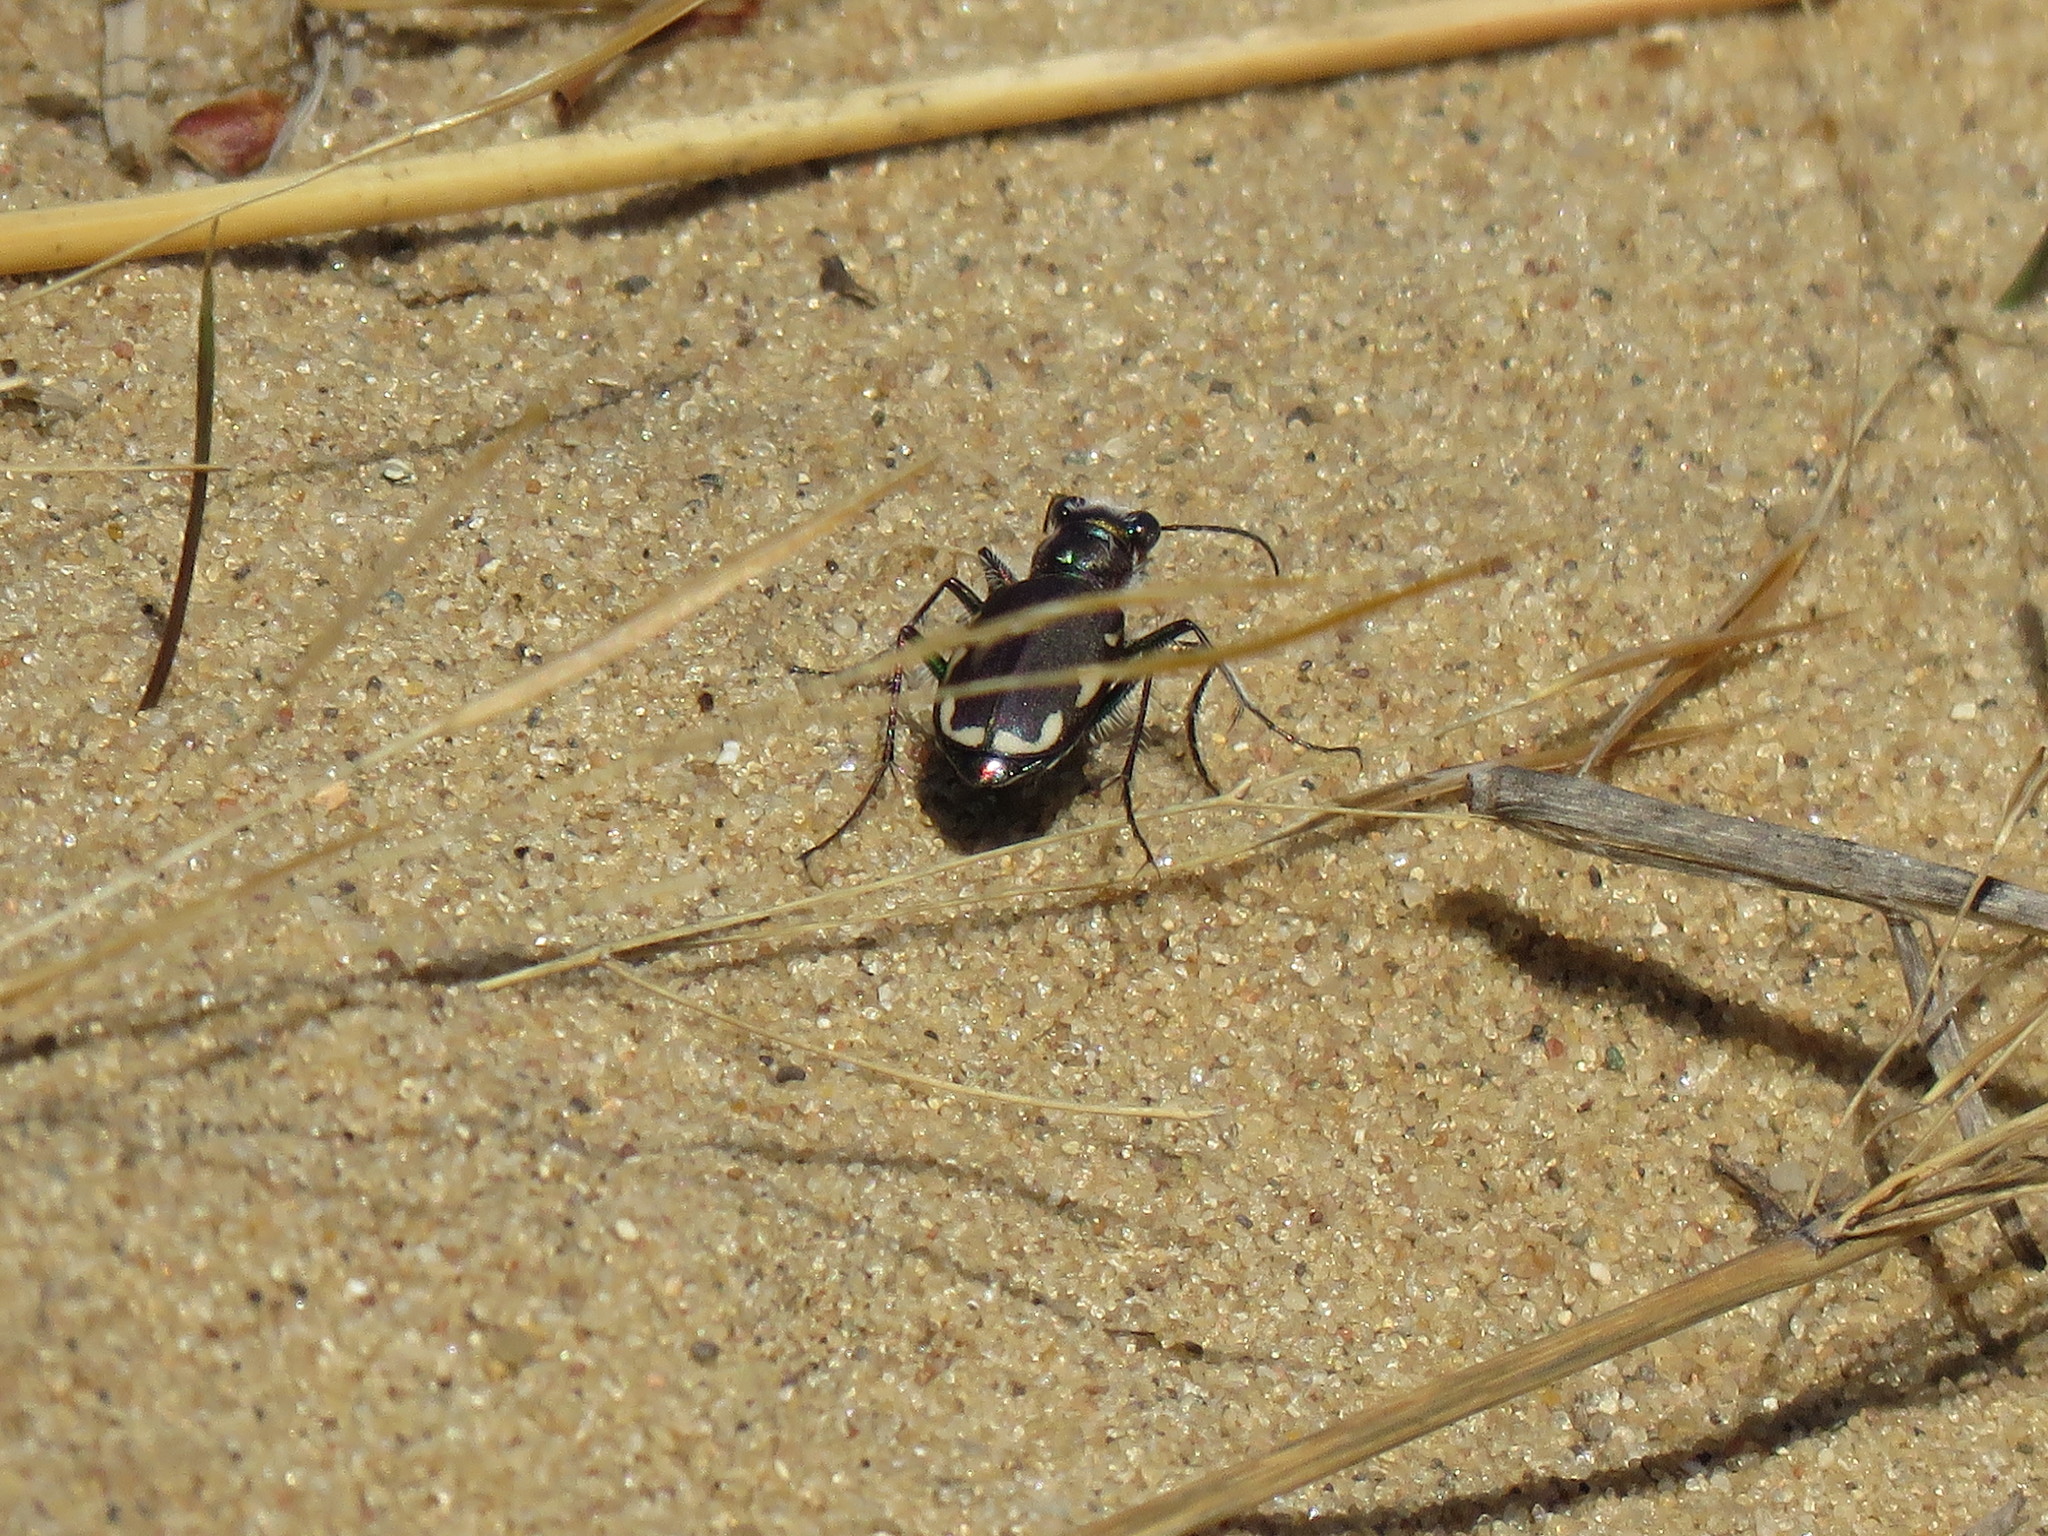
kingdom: Animalia
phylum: Arthropoda
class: Insecta
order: Coleoptera
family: Carabidae
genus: Cicindela
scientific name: Cicindela scutellaris
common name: Festive tiger beetle
